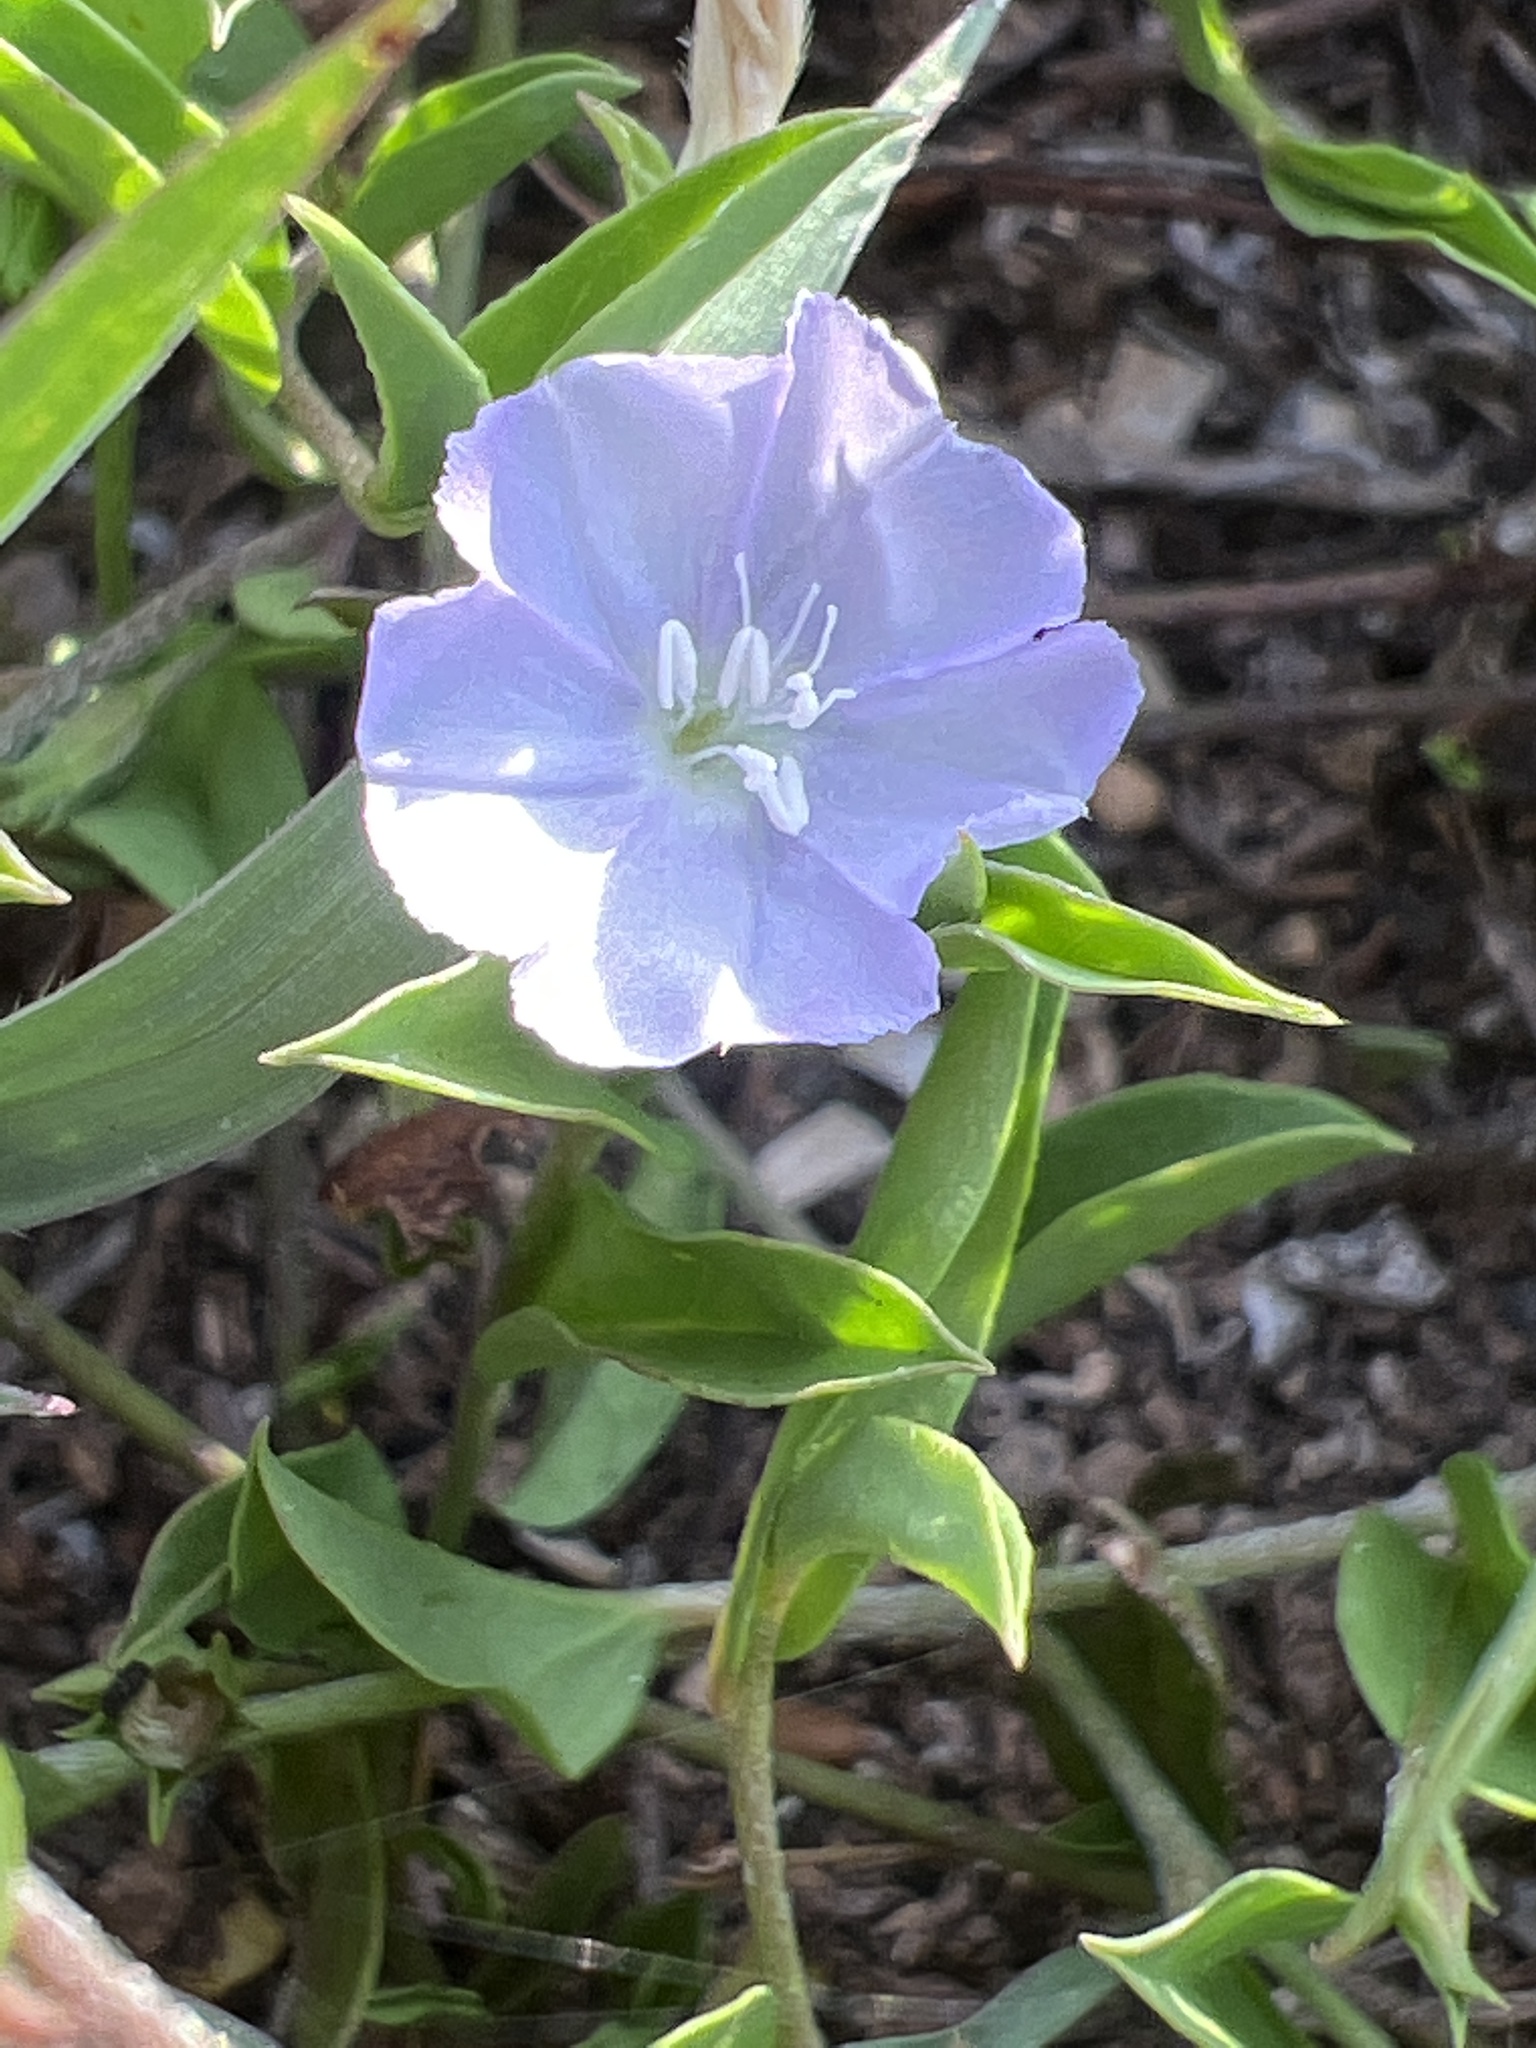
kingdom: Plantae
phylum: Tracheophyta
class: Magnoliopsida
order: Solanales
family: Convolvulaceae
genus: Evolvulus
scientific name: Evolvulus convolvuloides
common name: Bindweed dwarf morning-glory
